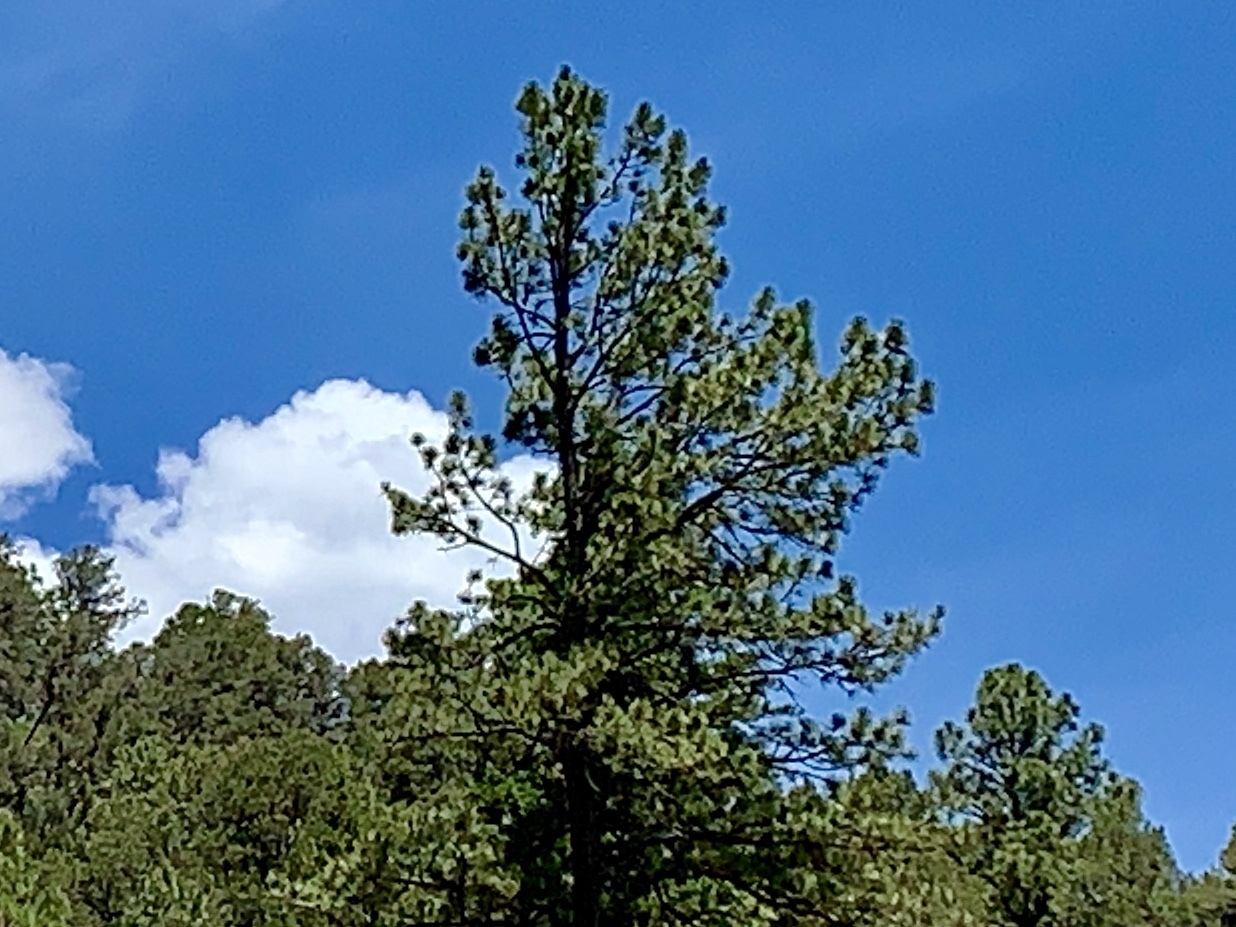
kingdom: Plantae
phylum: Tracheophyta
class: Pinopsida
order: Pinales
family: Pinaceae
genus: Pinus
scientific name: Pinus ponderosa
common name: Western yellow-pine
